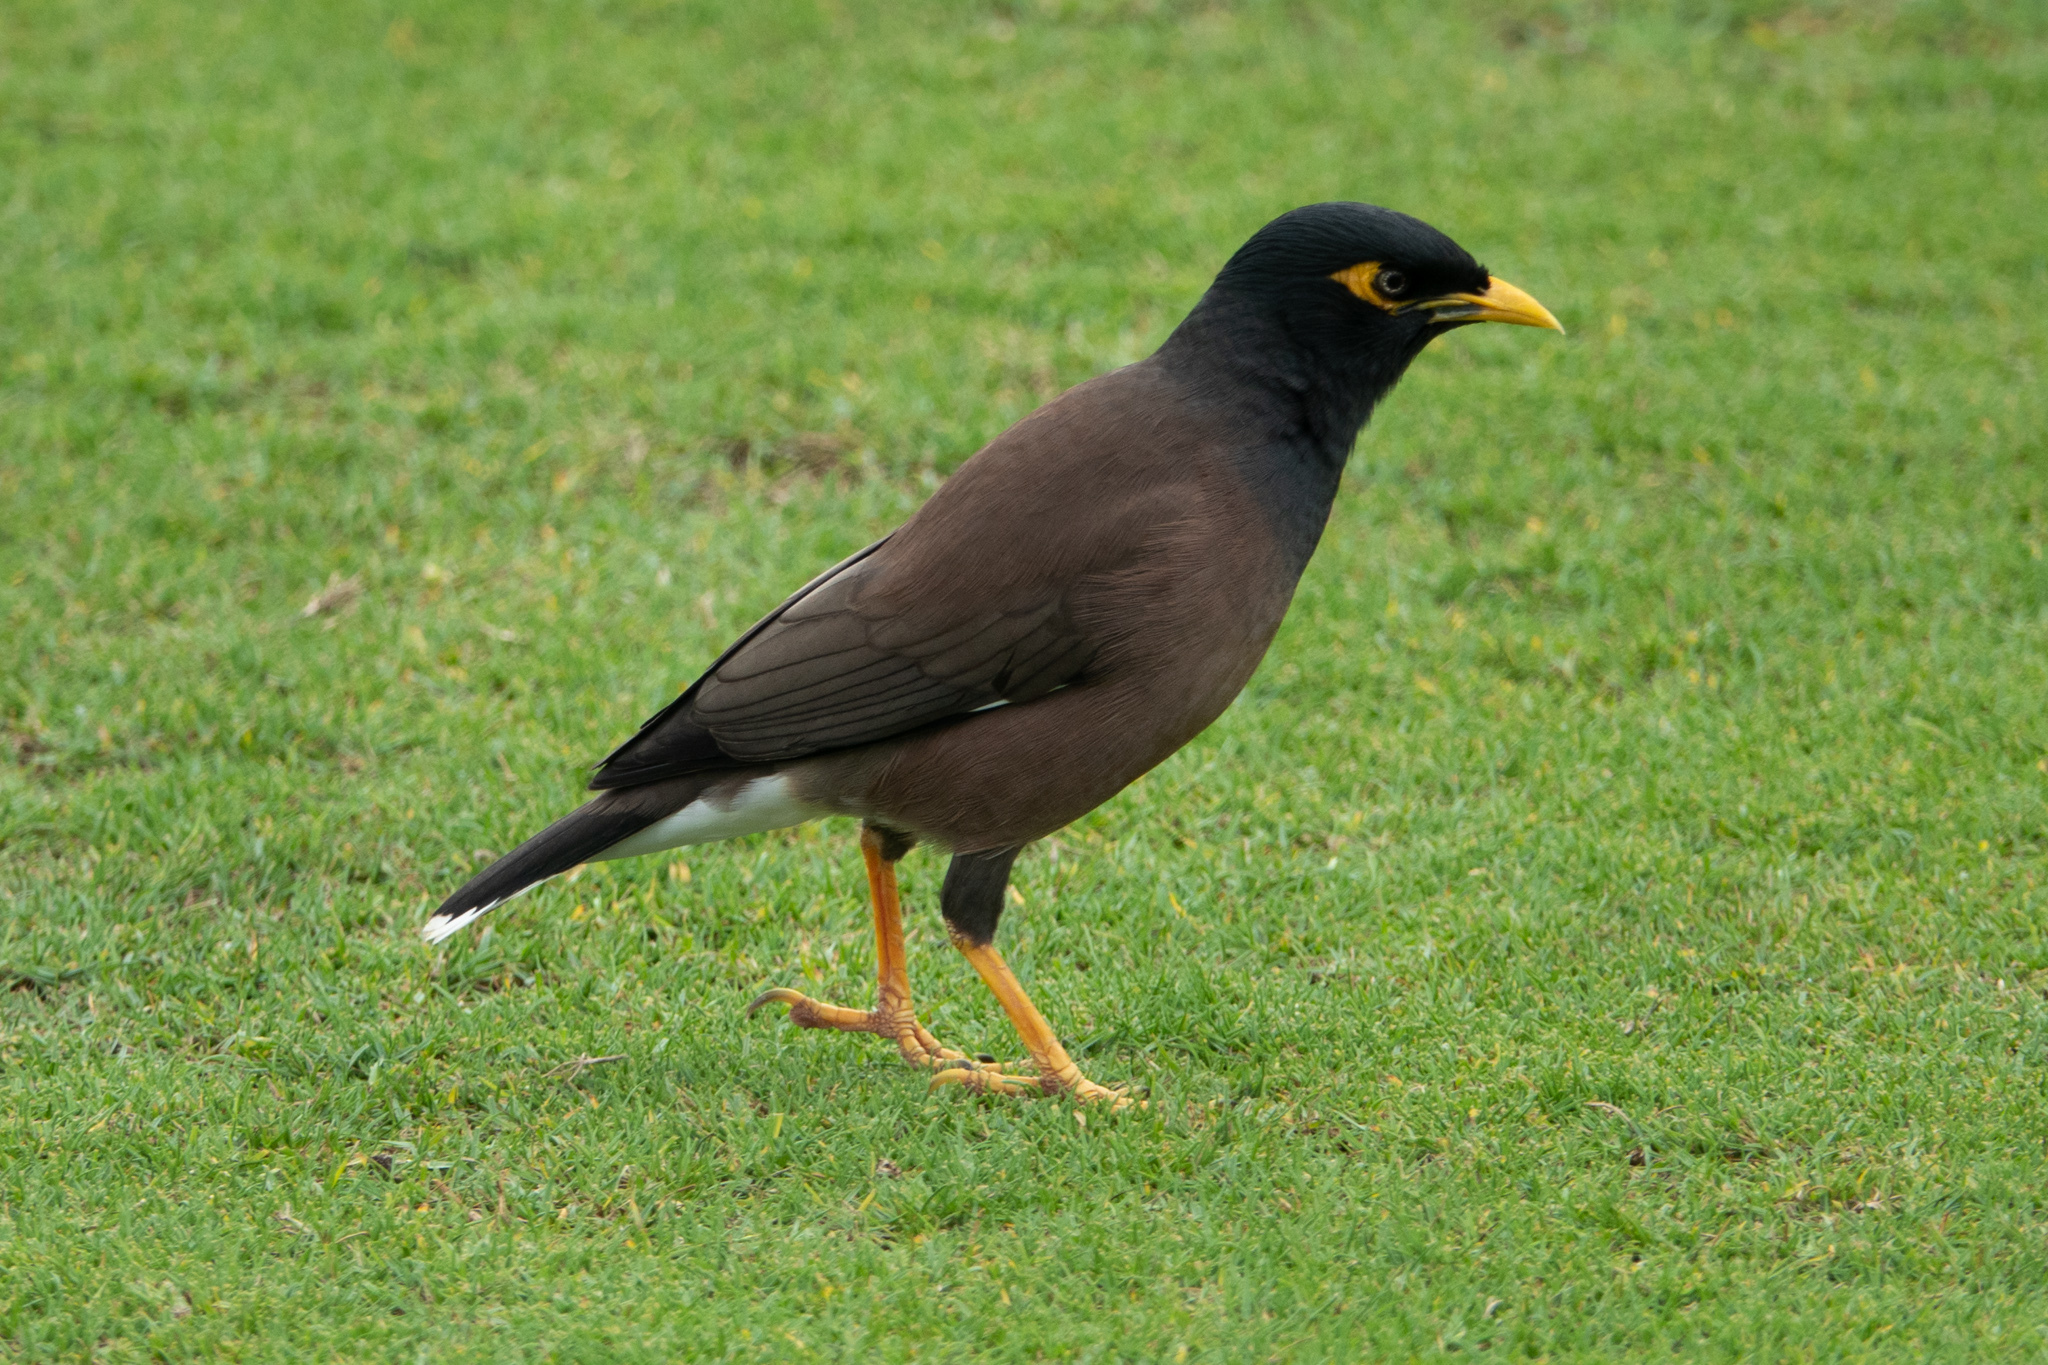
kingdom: Animalia
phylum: Chordata
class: Aves
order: Passeriformes
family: Sturnidae
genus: Acridotheres
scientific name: Acridotheres tristis
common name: Common myna
